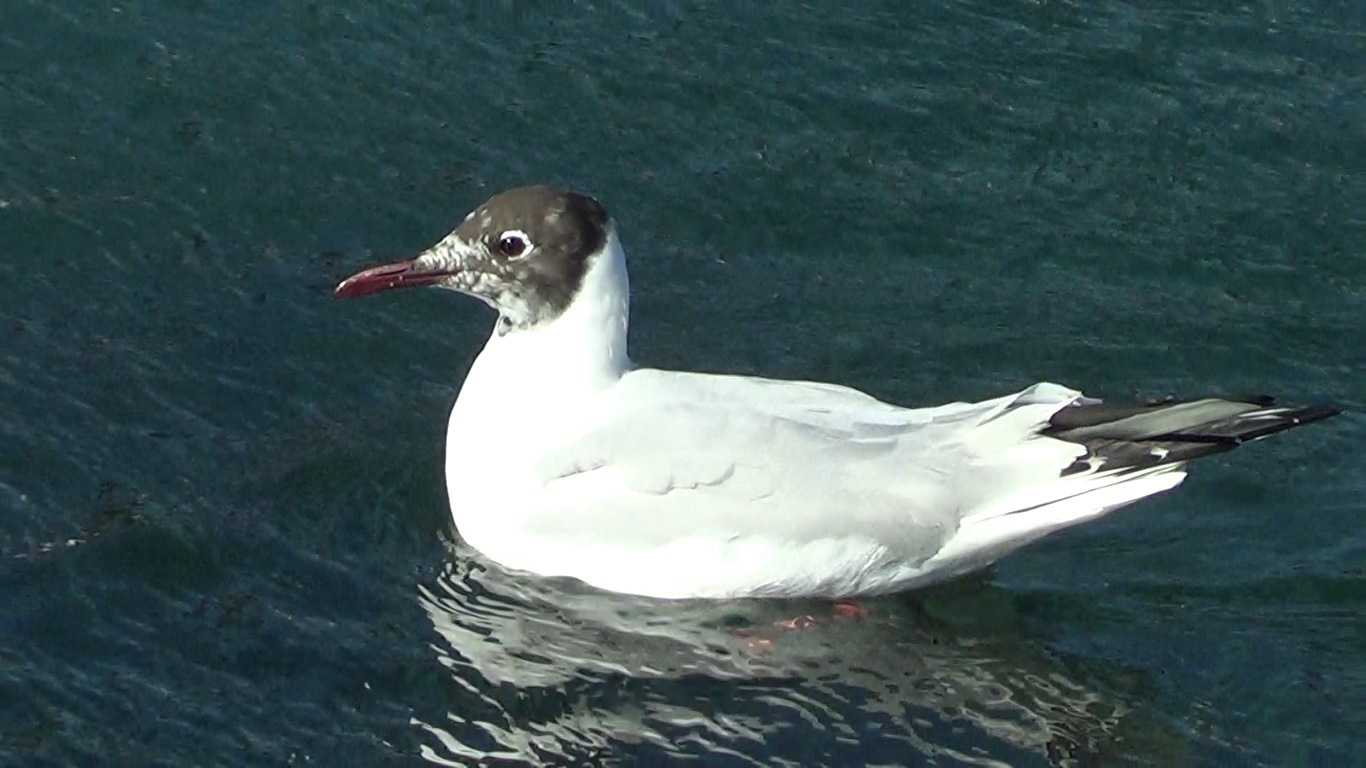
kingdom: Animalia
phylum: Chordata
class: Aves
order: Charadriiformes
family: Laridae
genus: Chroicocephalus
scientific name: Chroicocephalus ridibundus
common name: Black-headed gull
